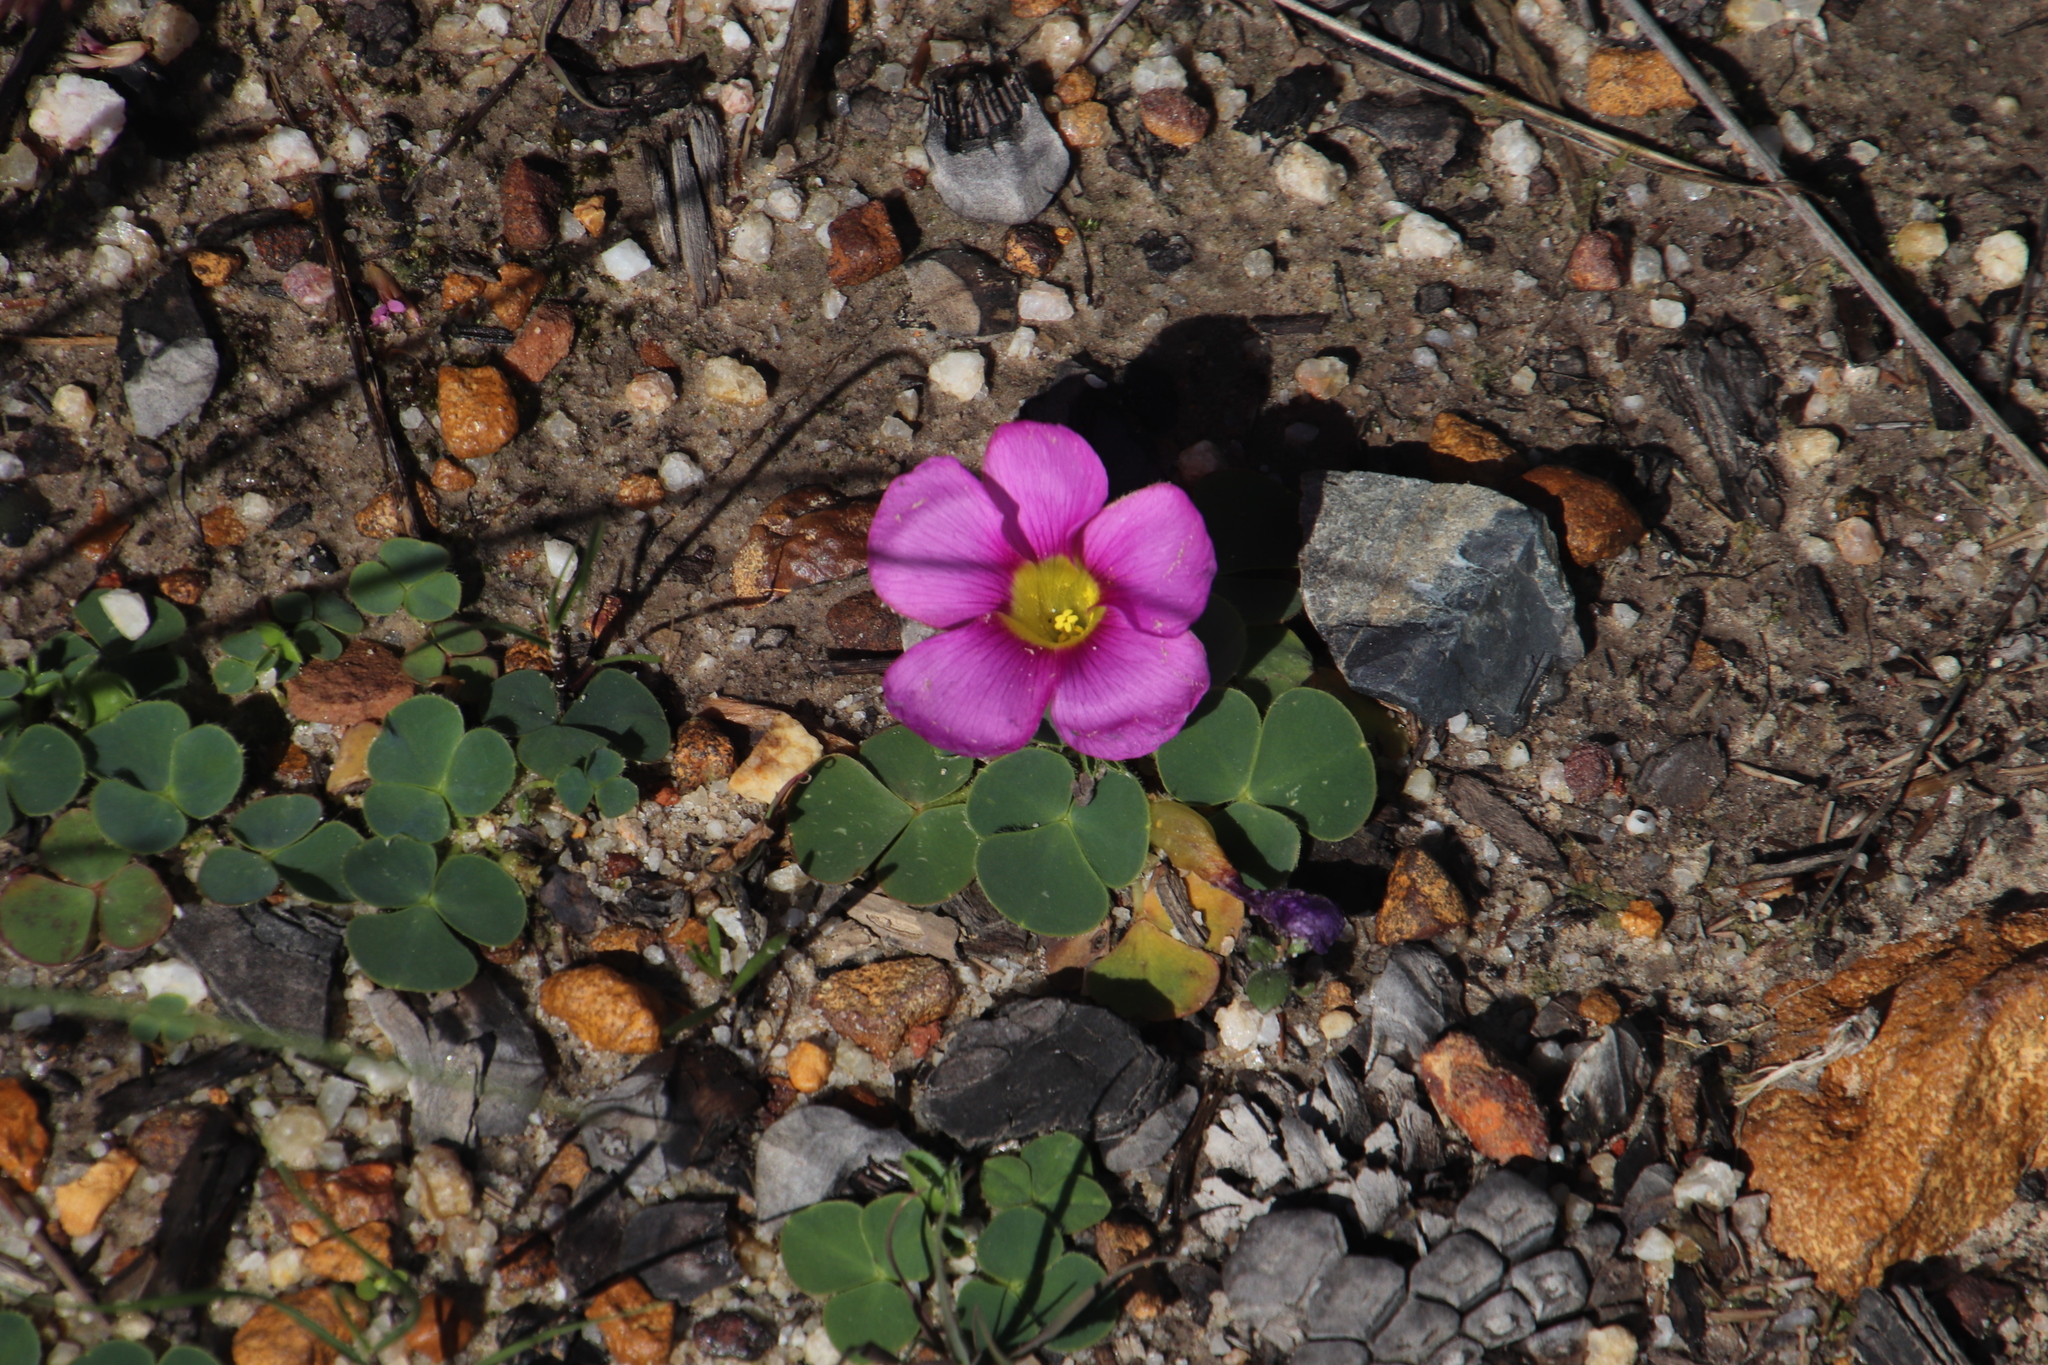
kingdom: Plantae
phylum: Tracheophyta
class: Magnoliopsida
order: Oxalidales
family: Oxalidaceae
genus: Oxalis
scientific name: Oxalis purpurea
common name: Purple woodsorrel
